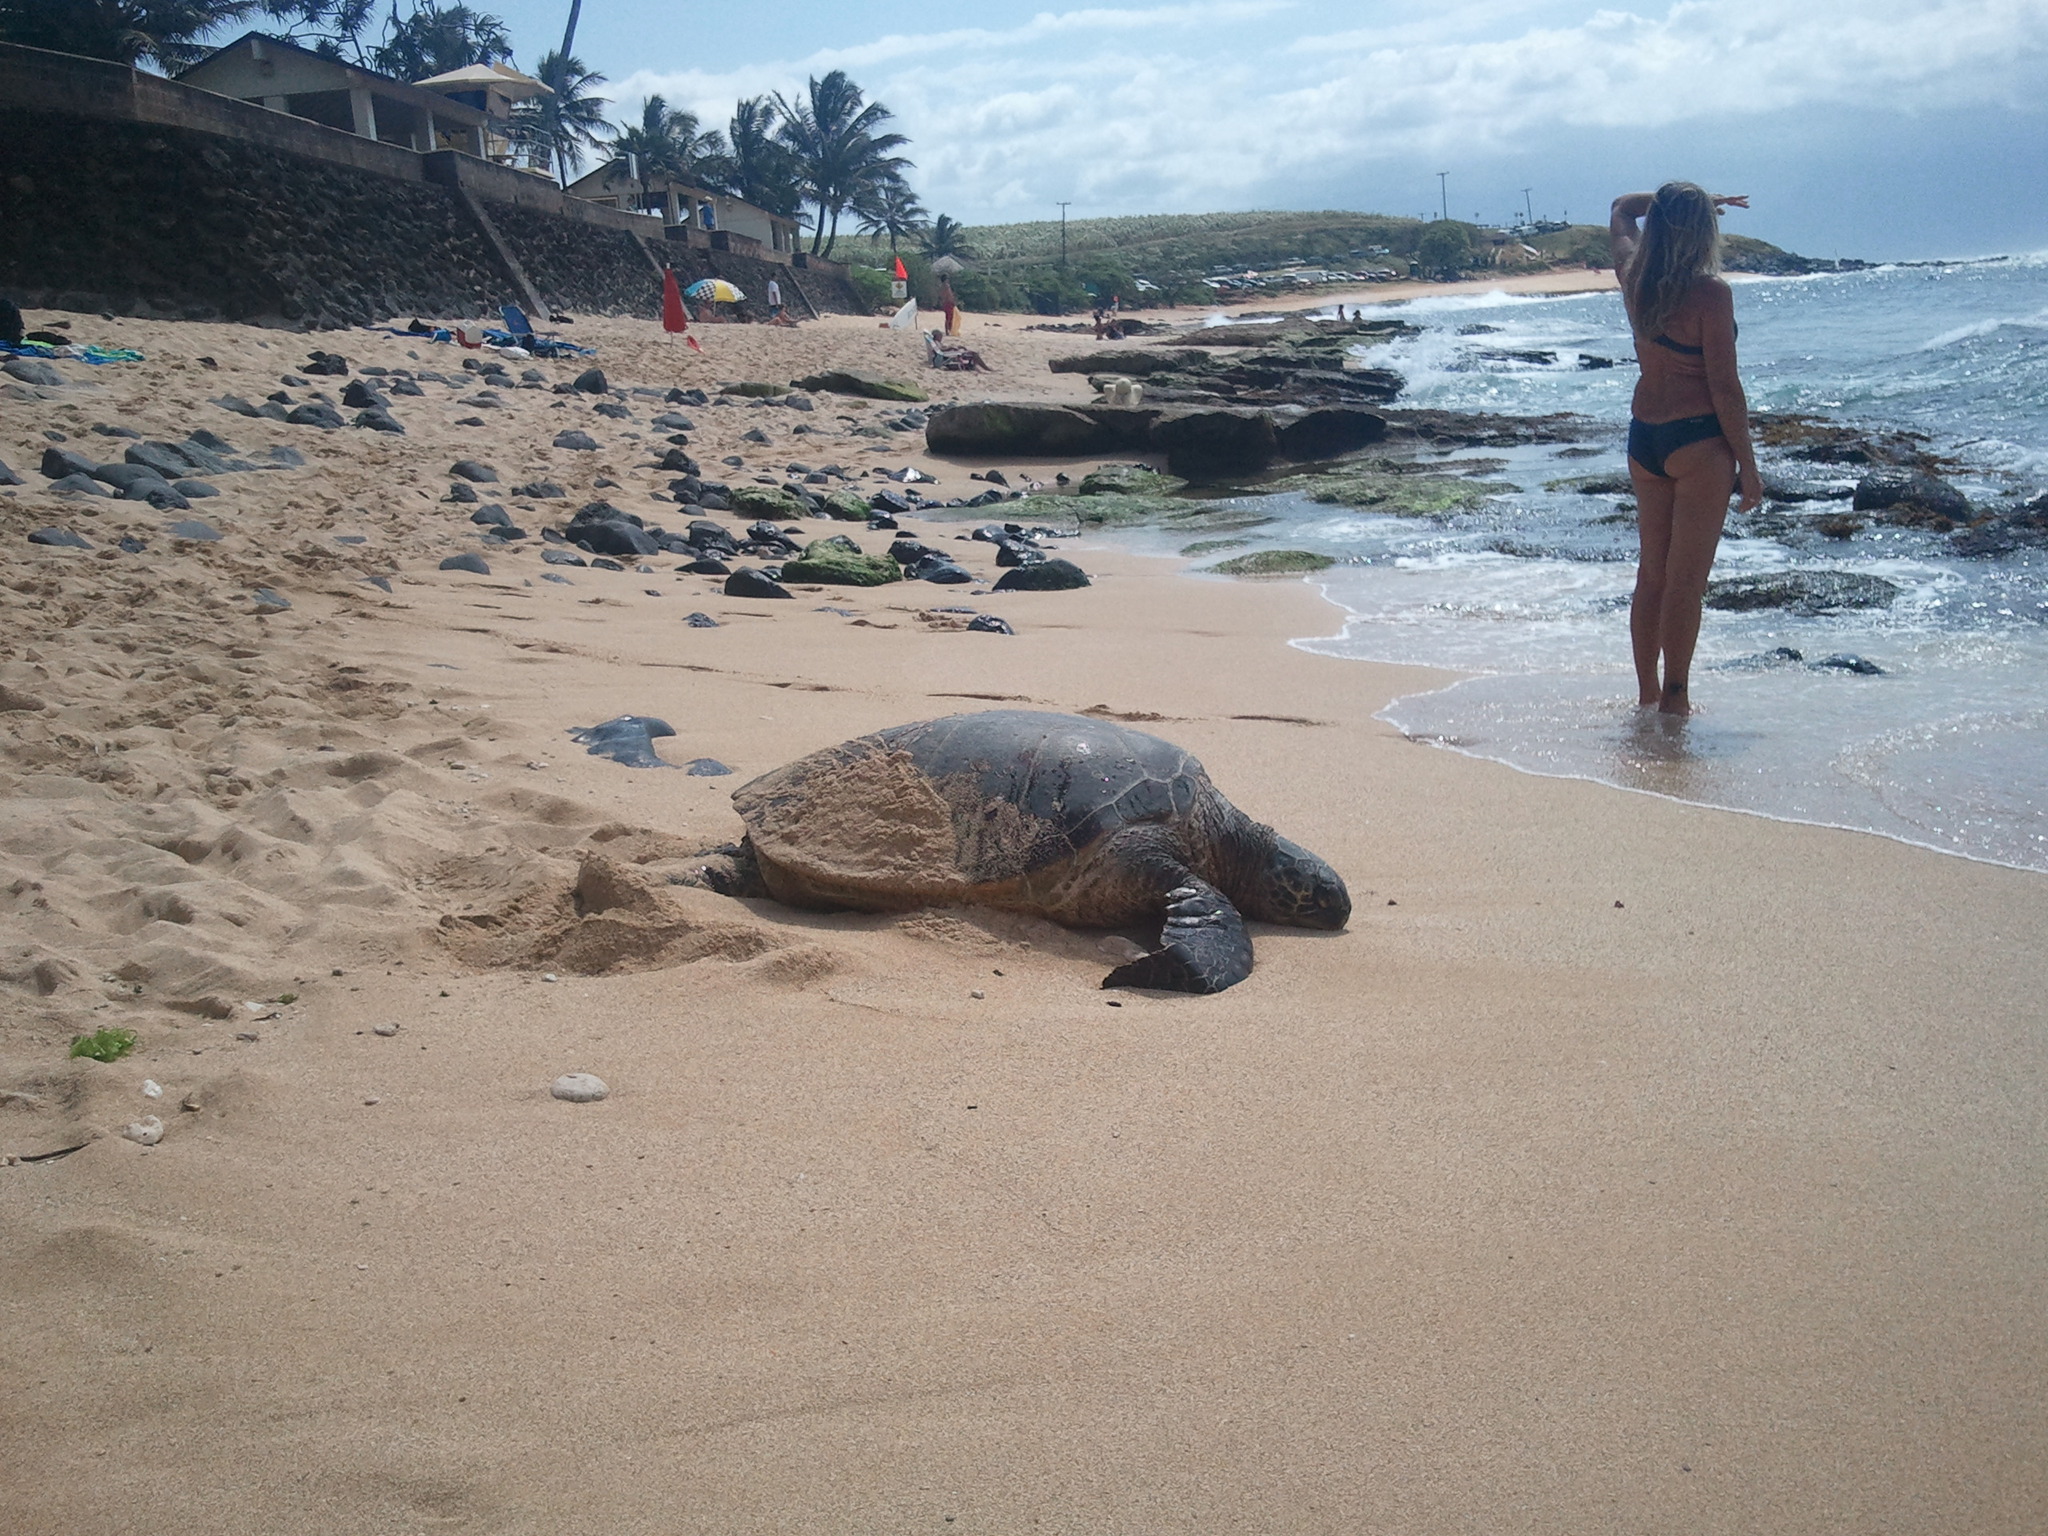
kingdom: Animalia
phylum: Chordata
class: Testudines
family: Cheloniidae
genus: Chelonia
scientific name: Chelonia mydas
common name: Green turtle
